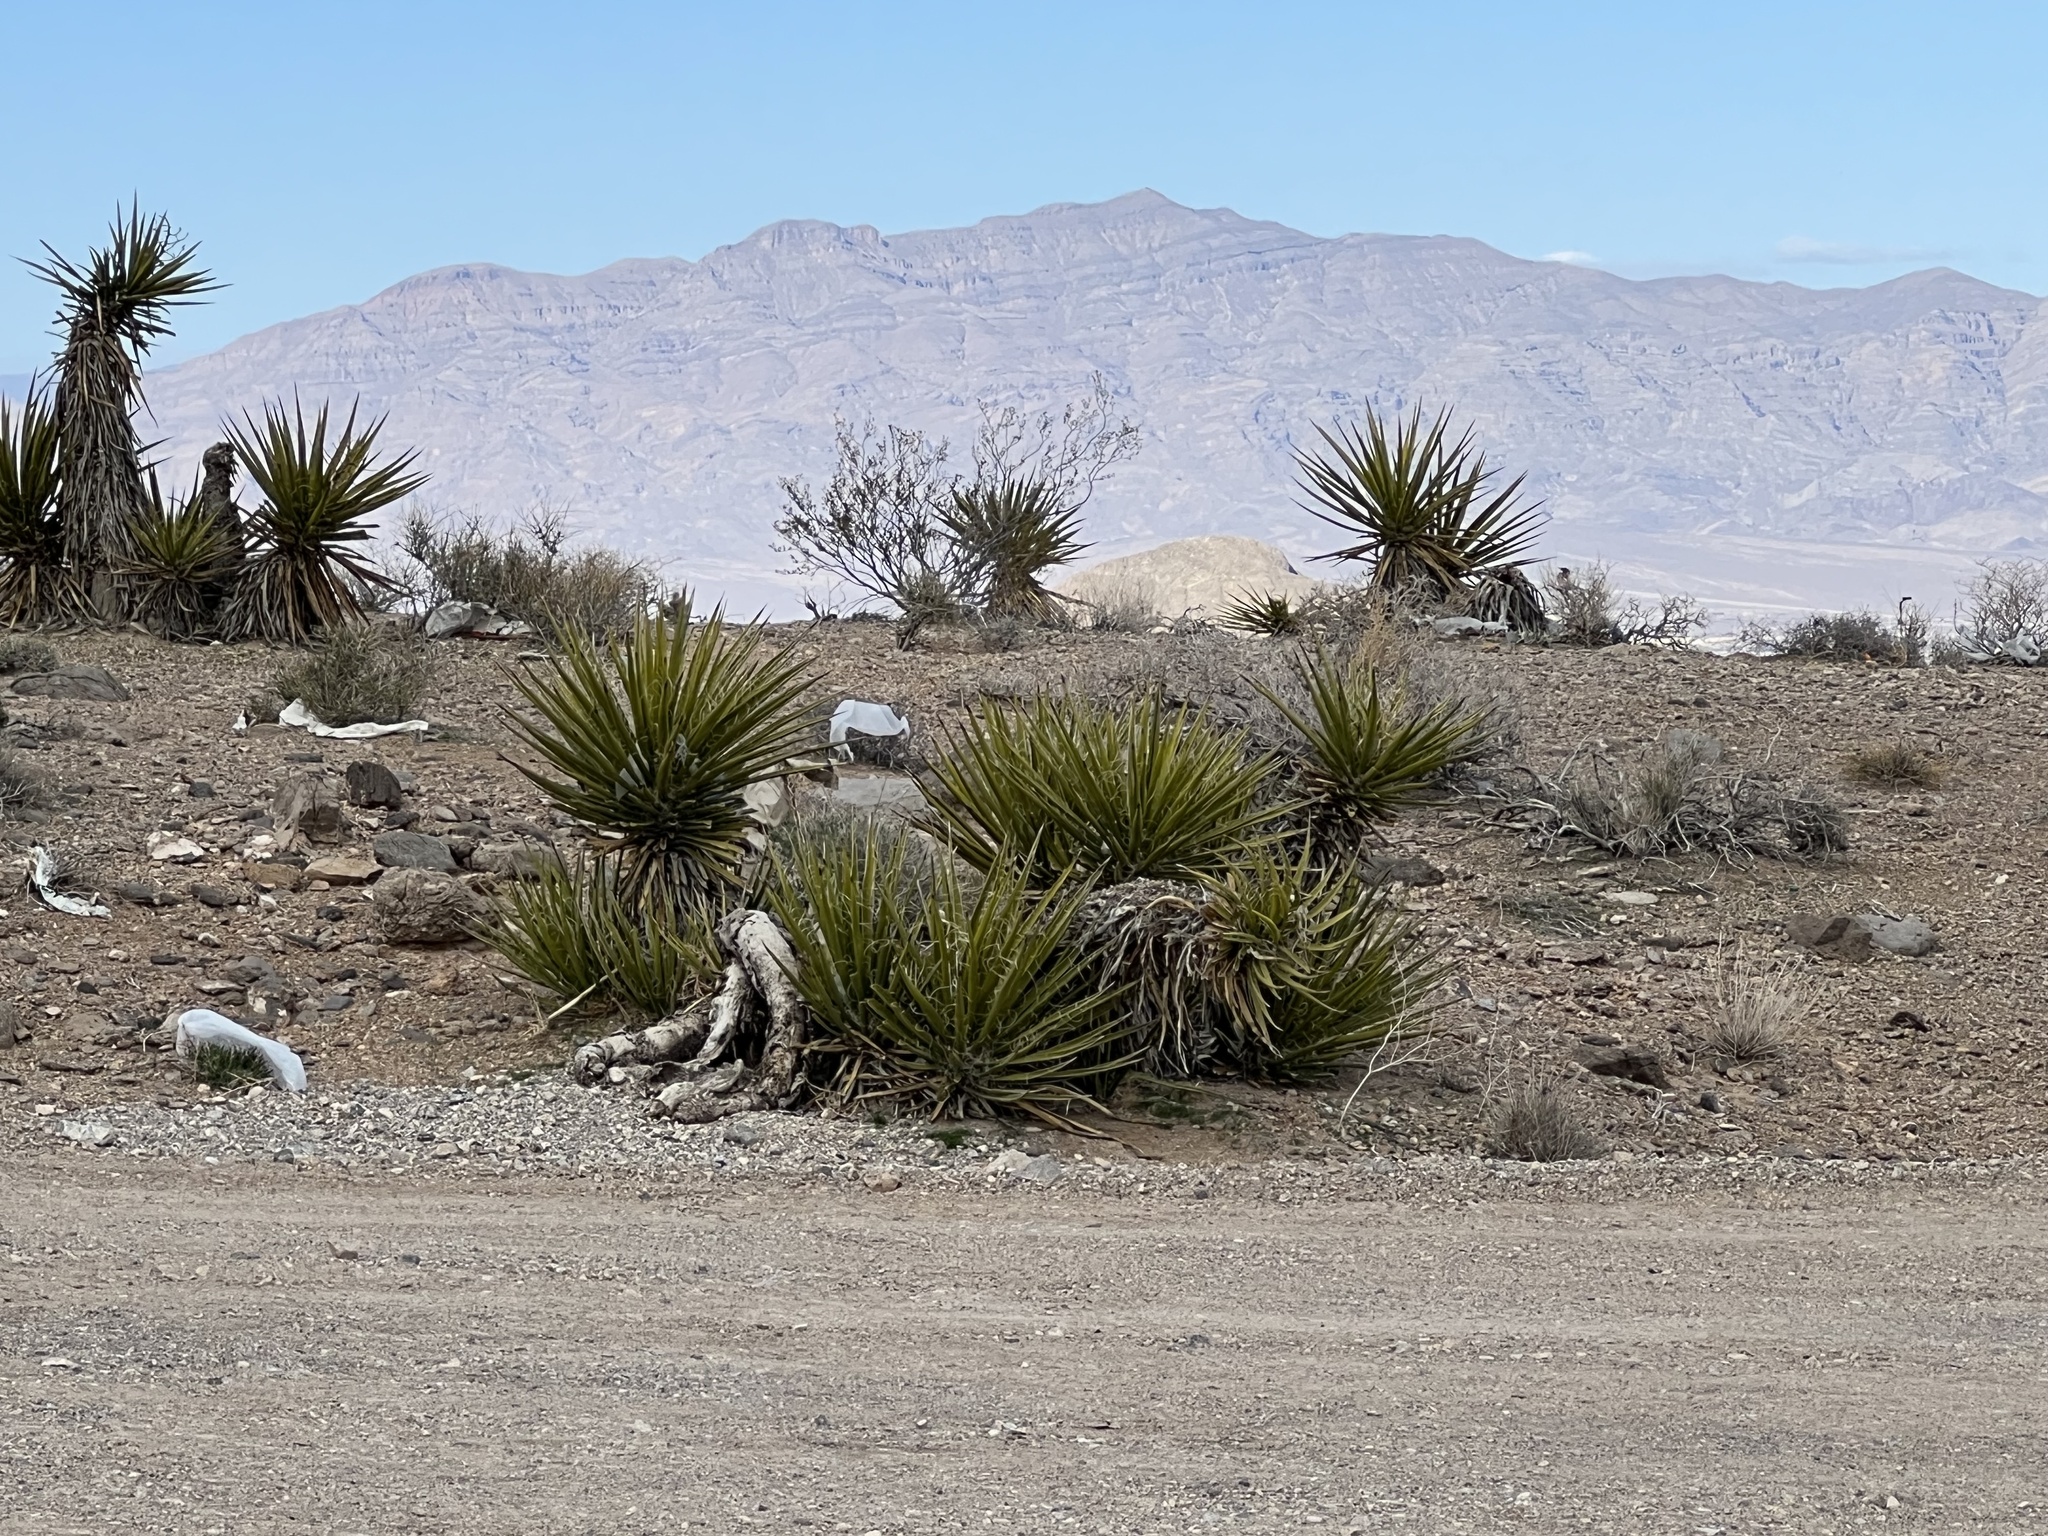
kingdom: Plantae
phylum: Tracheophyta
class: Liliopsida
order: Asparagales
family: Asparagaceae
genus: Yucca
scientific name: Yucca schidigera
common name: Mojave yucca
